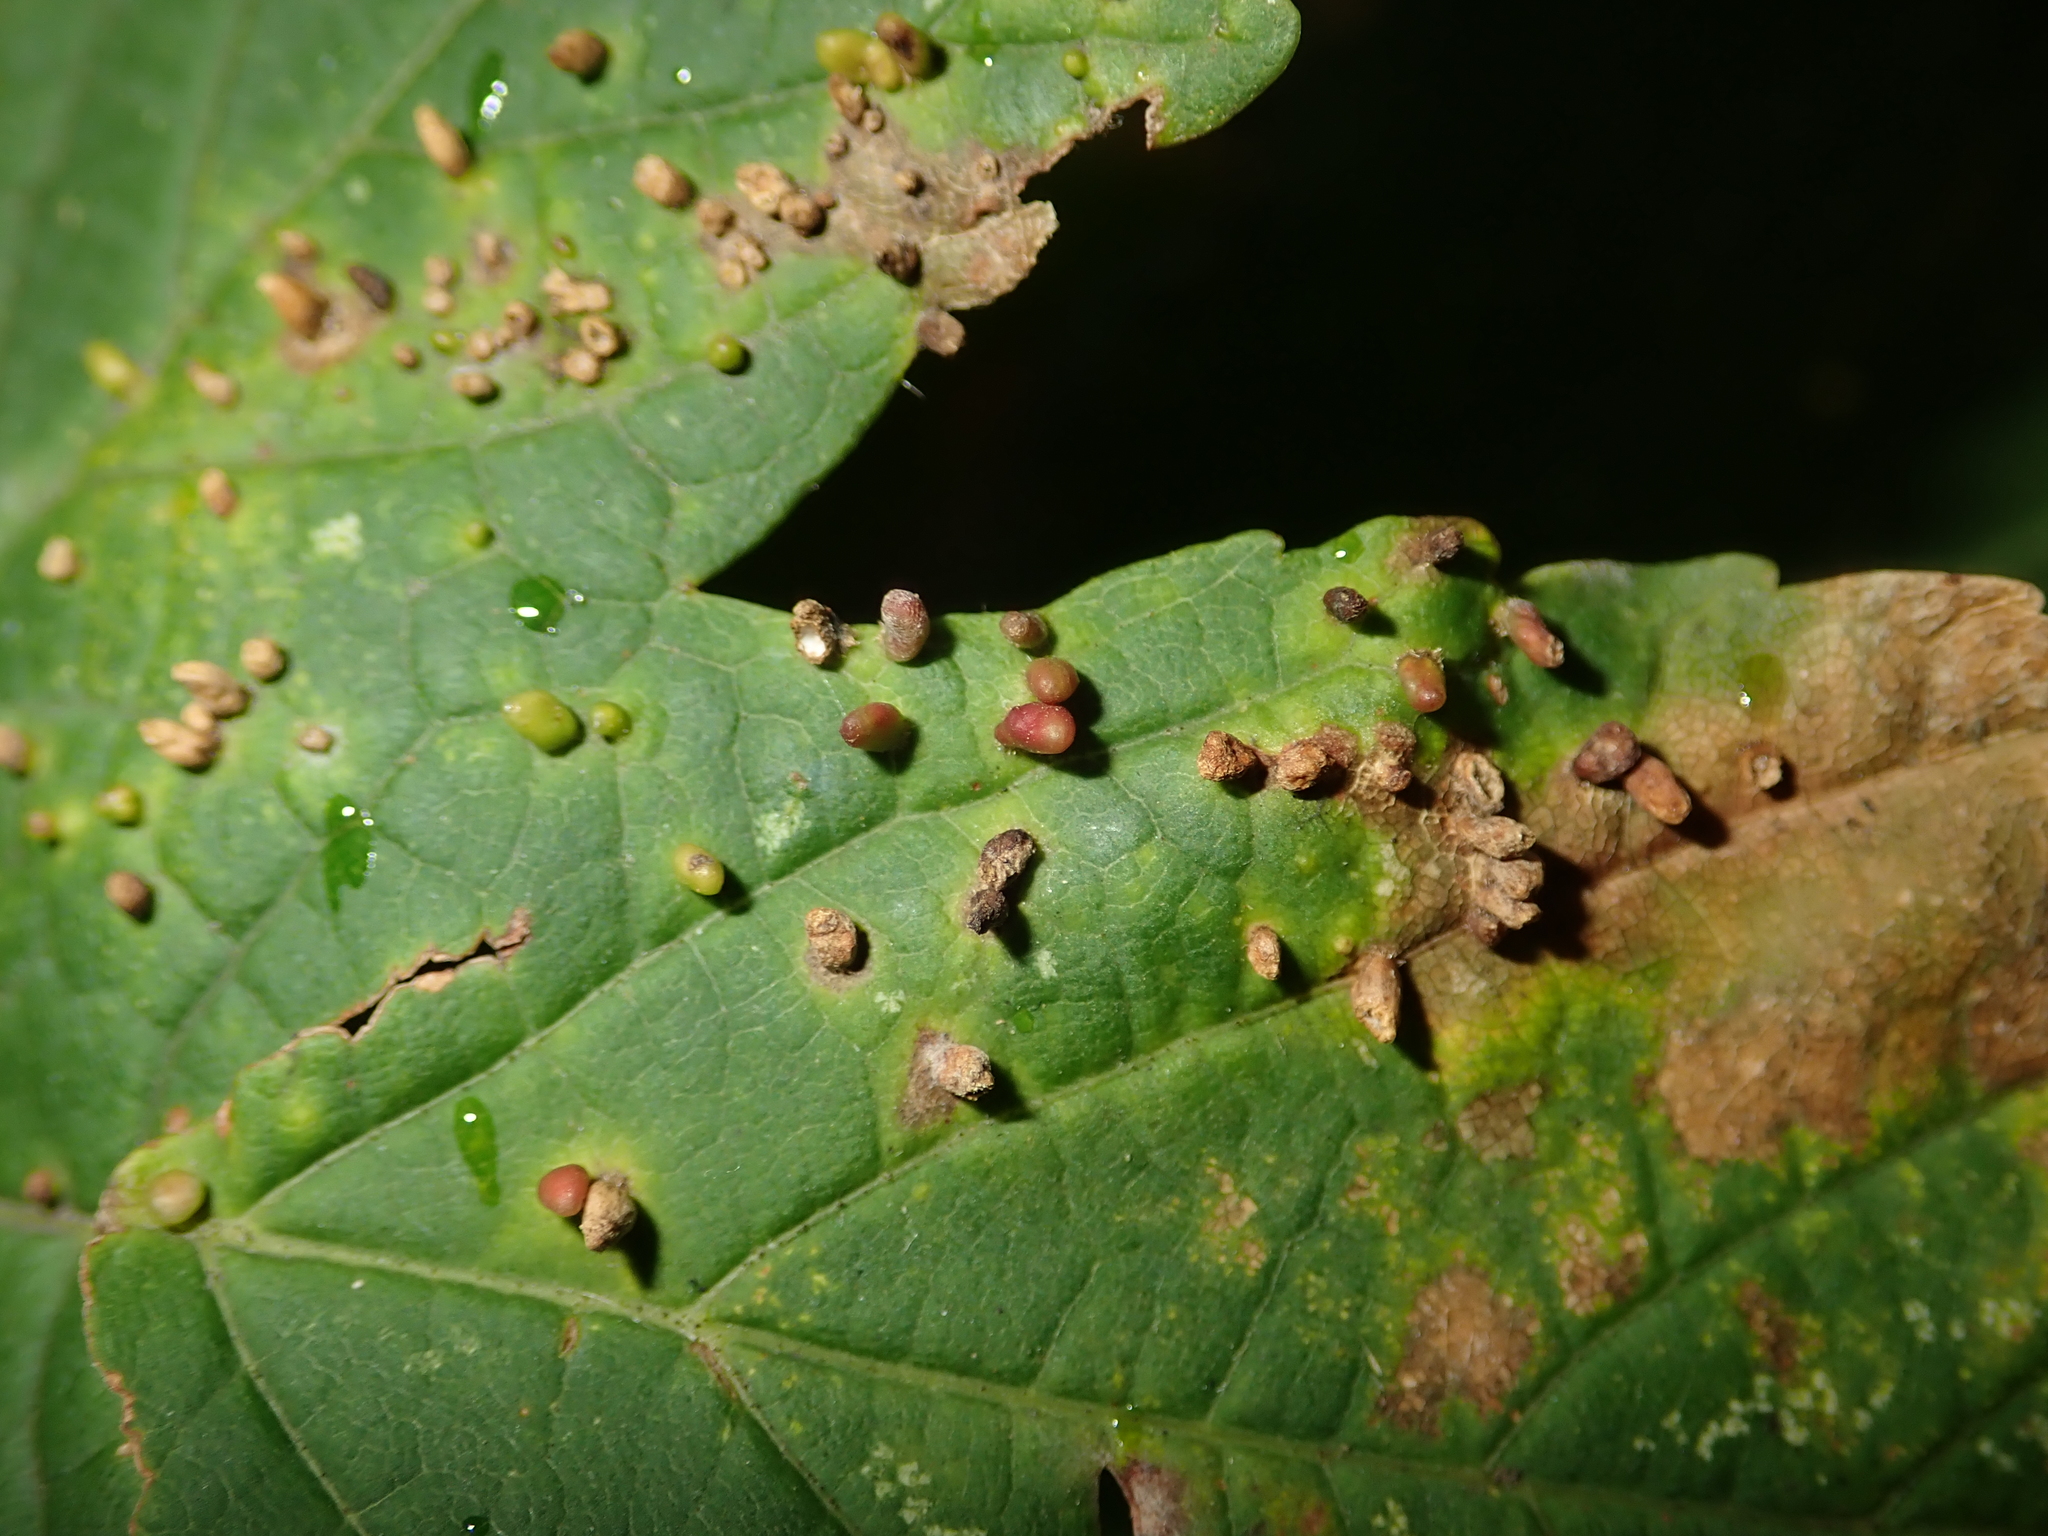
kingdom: Animalia
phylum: Arthropoda
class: Arachnida
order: Trombidiformes
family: Eriophyidae
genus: Aceria
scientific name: Aceria cephaloneus
